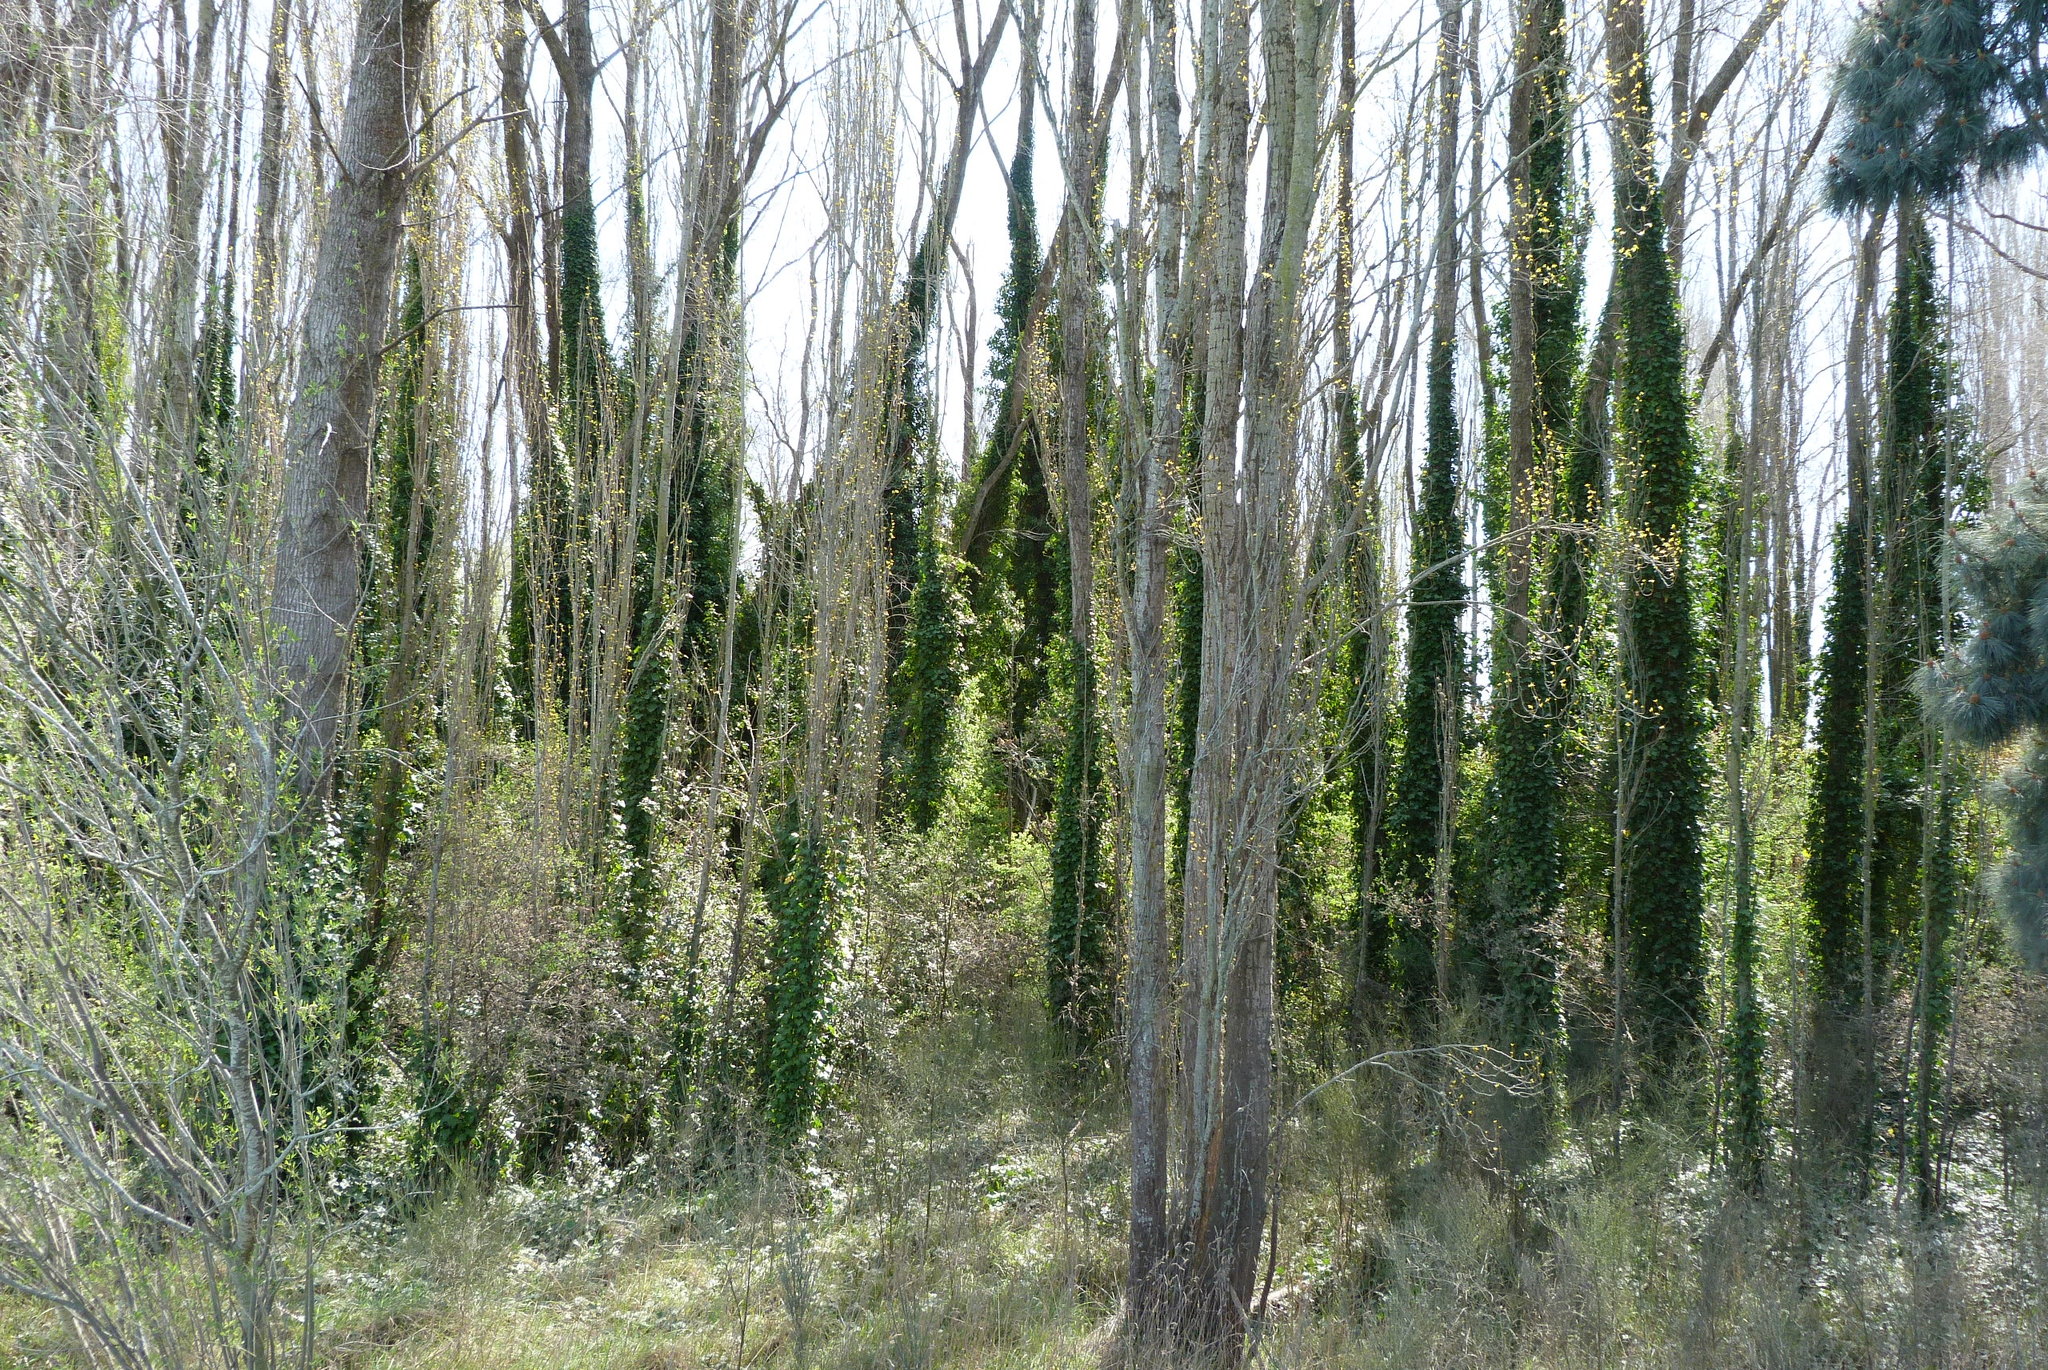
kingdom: Plantae
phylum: Tracheophyta
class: Magnoliopsida
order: Apiales
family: Araliaceae
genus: Hedera
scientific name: Hedera helix
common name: Ivy
